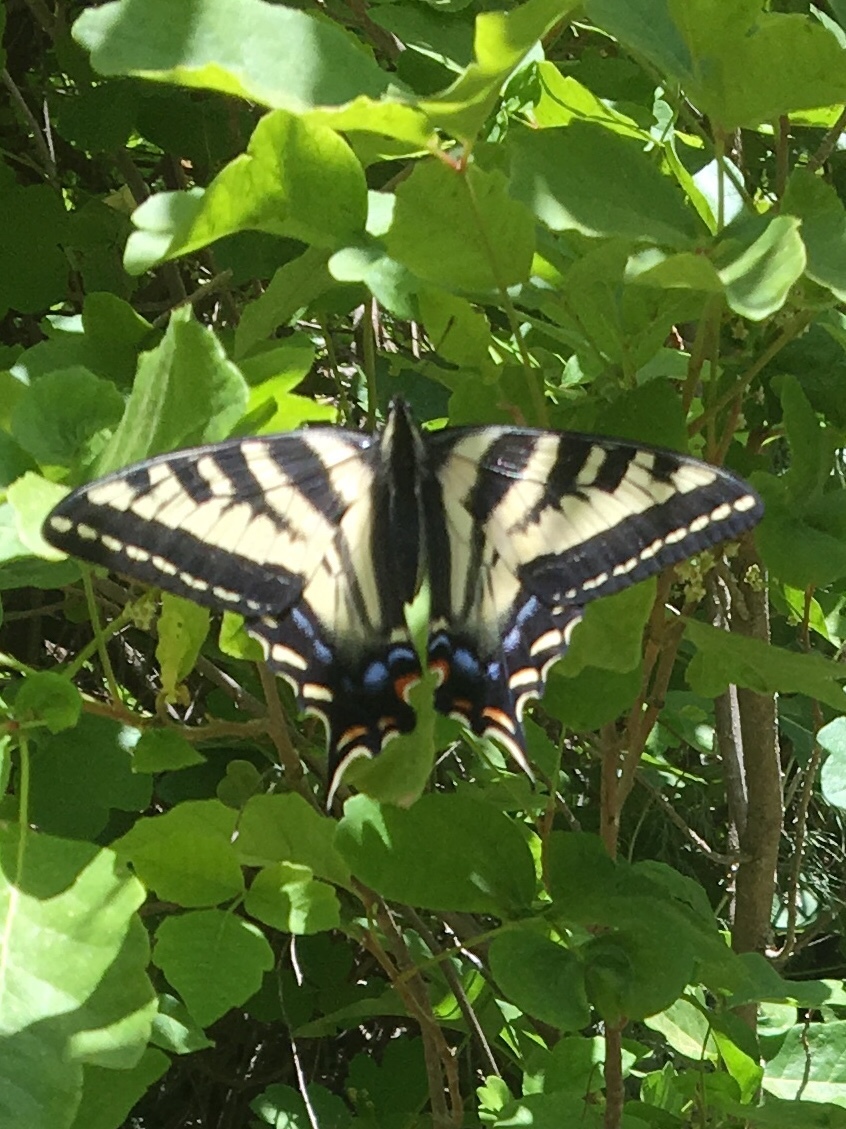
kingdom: Animalia
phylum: Arthropoda
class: Insecta
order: Lepidoptera
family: Papilionidae
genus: Papilio
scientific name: Papilio eurymedon
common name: Pale tiger swallowtail
